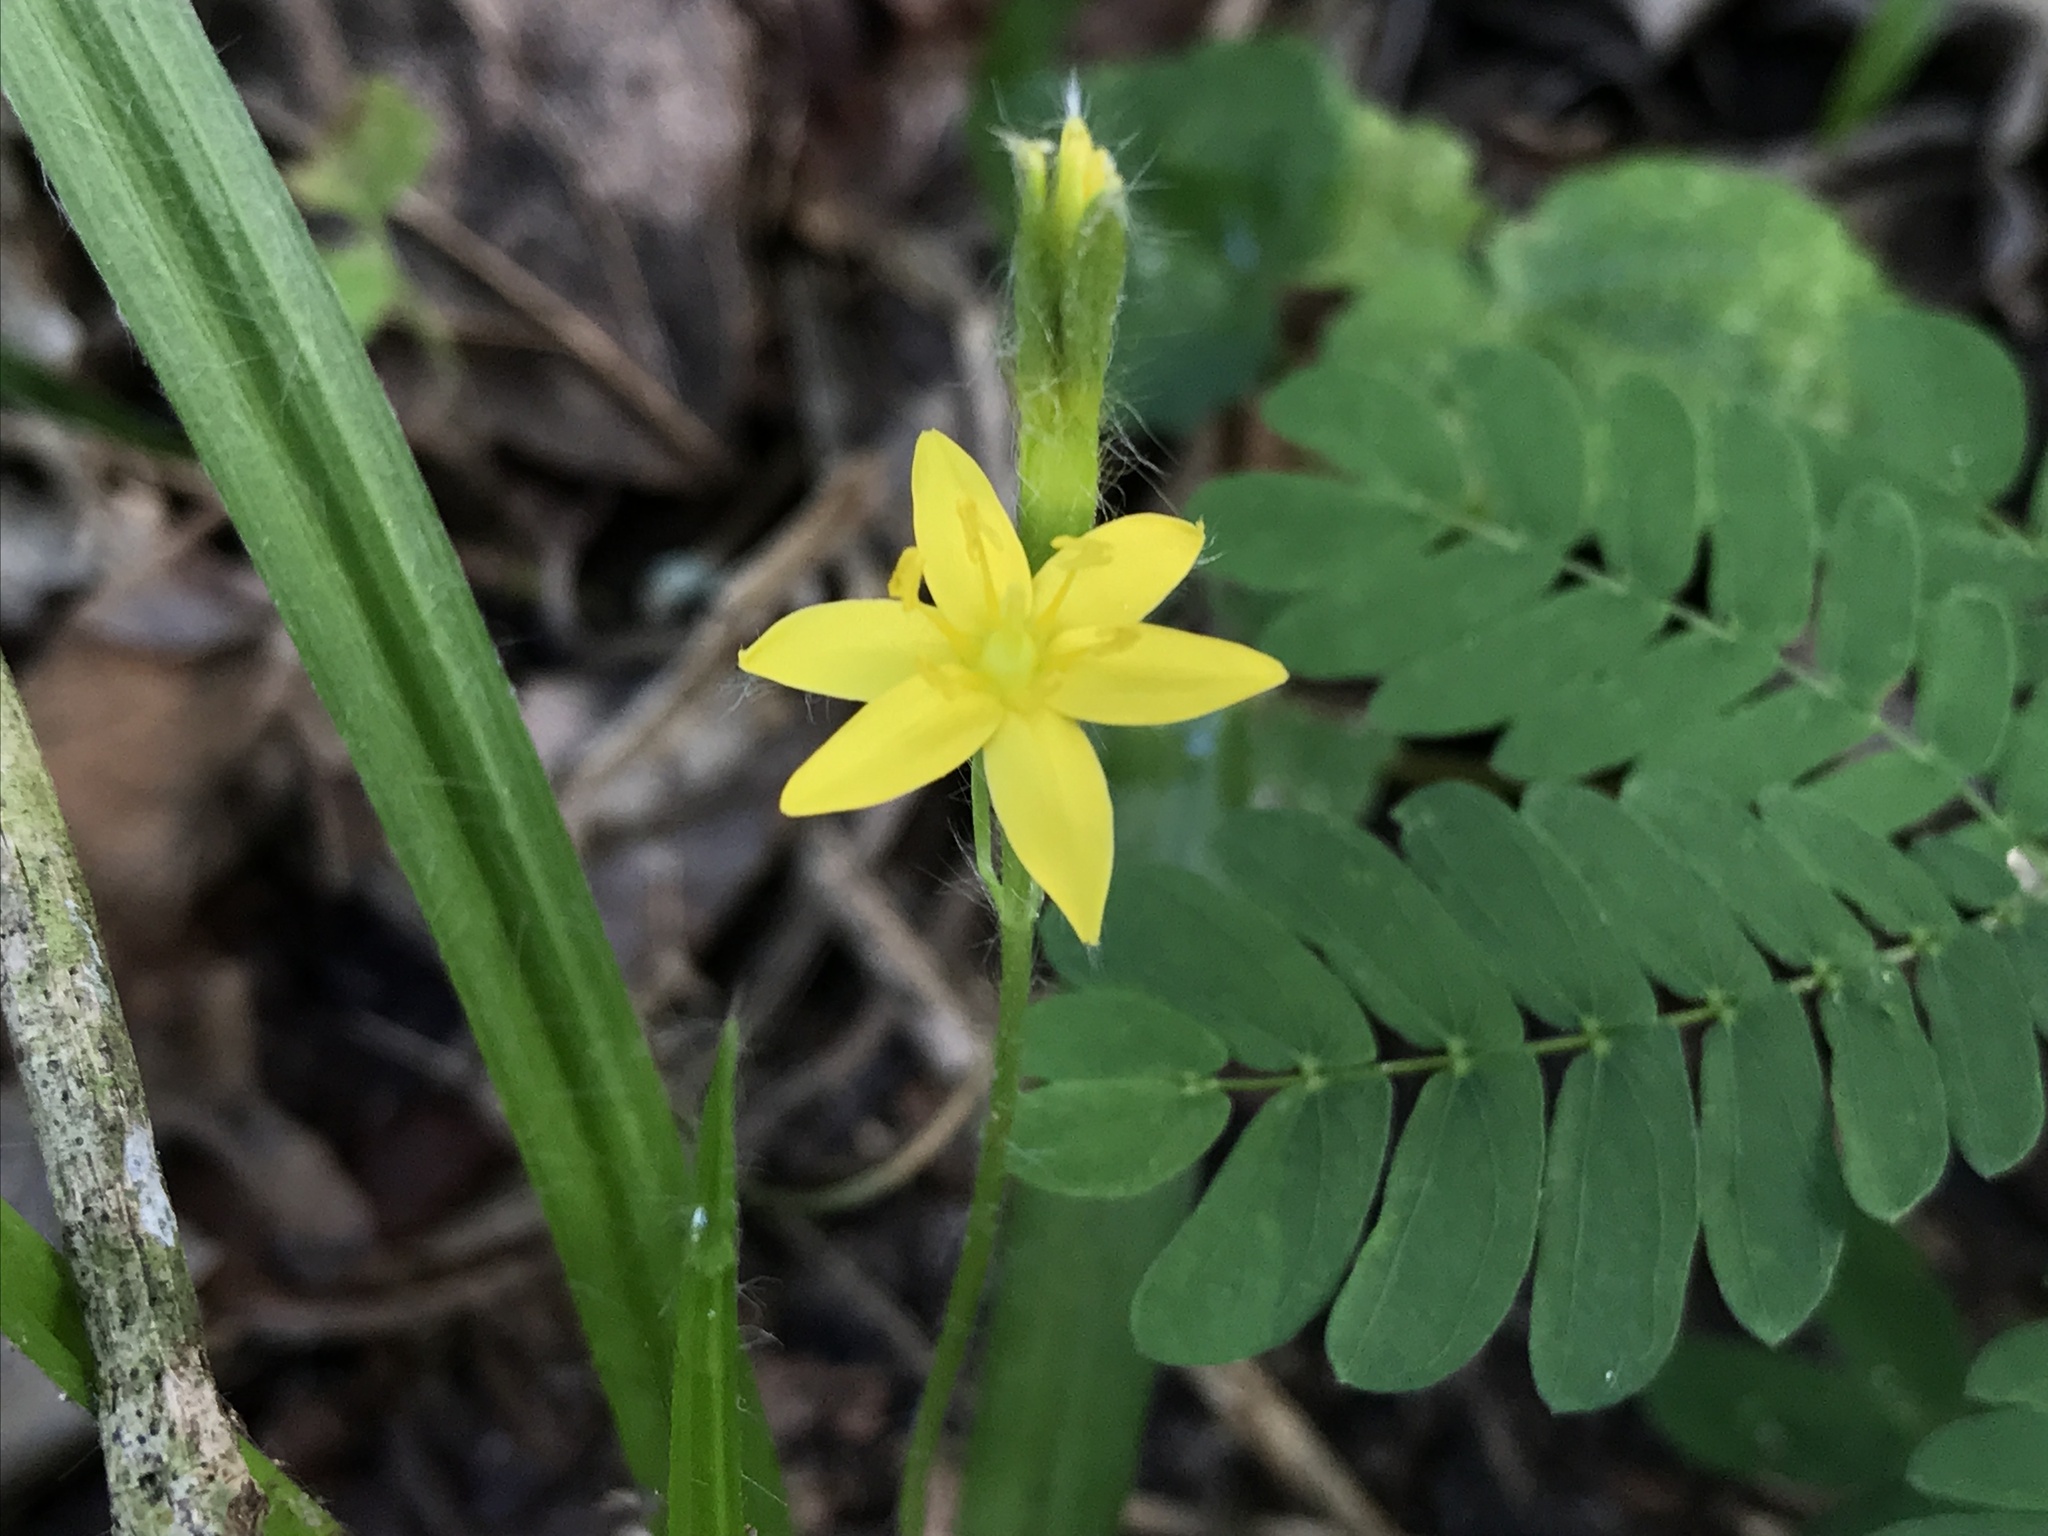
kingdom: Plantae
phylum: Tracheophyta
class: Liliopsida
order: Asparagales
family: Hypoxidaceae
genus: Hypoxis
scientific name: Hypoxis decumbens
